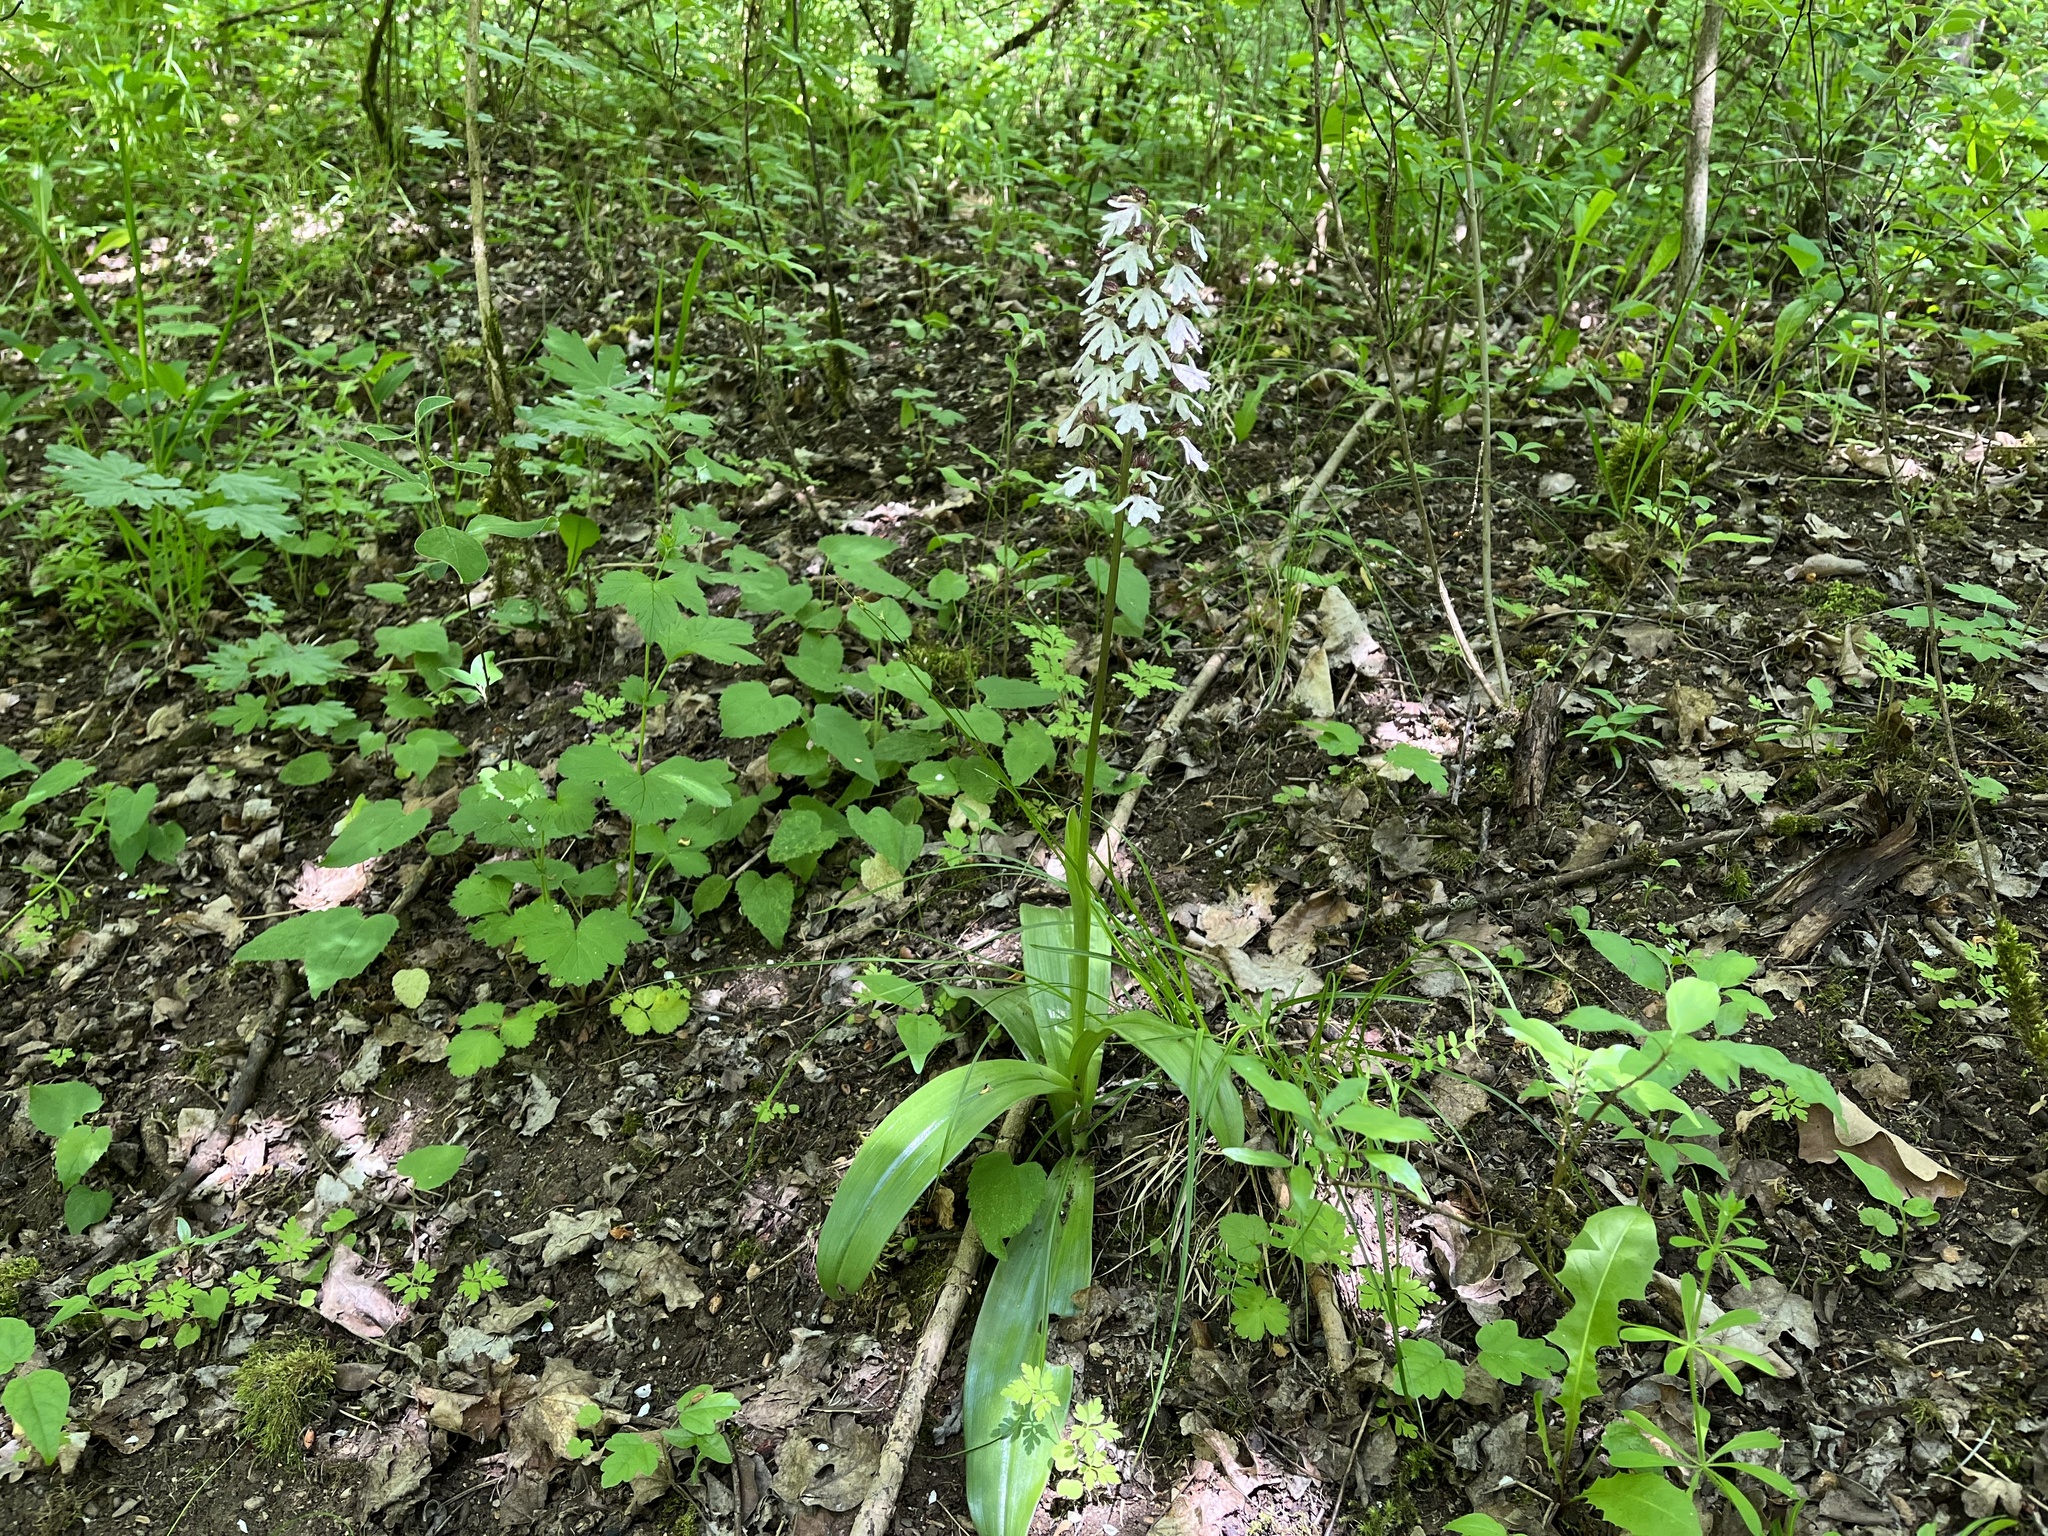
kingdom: Plantae
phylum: Tracheophyta
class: Liliopsida
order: Asparagales
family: Orchidaceae
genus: Orchis
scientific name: Orchis purpurea
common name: Lady orchid
